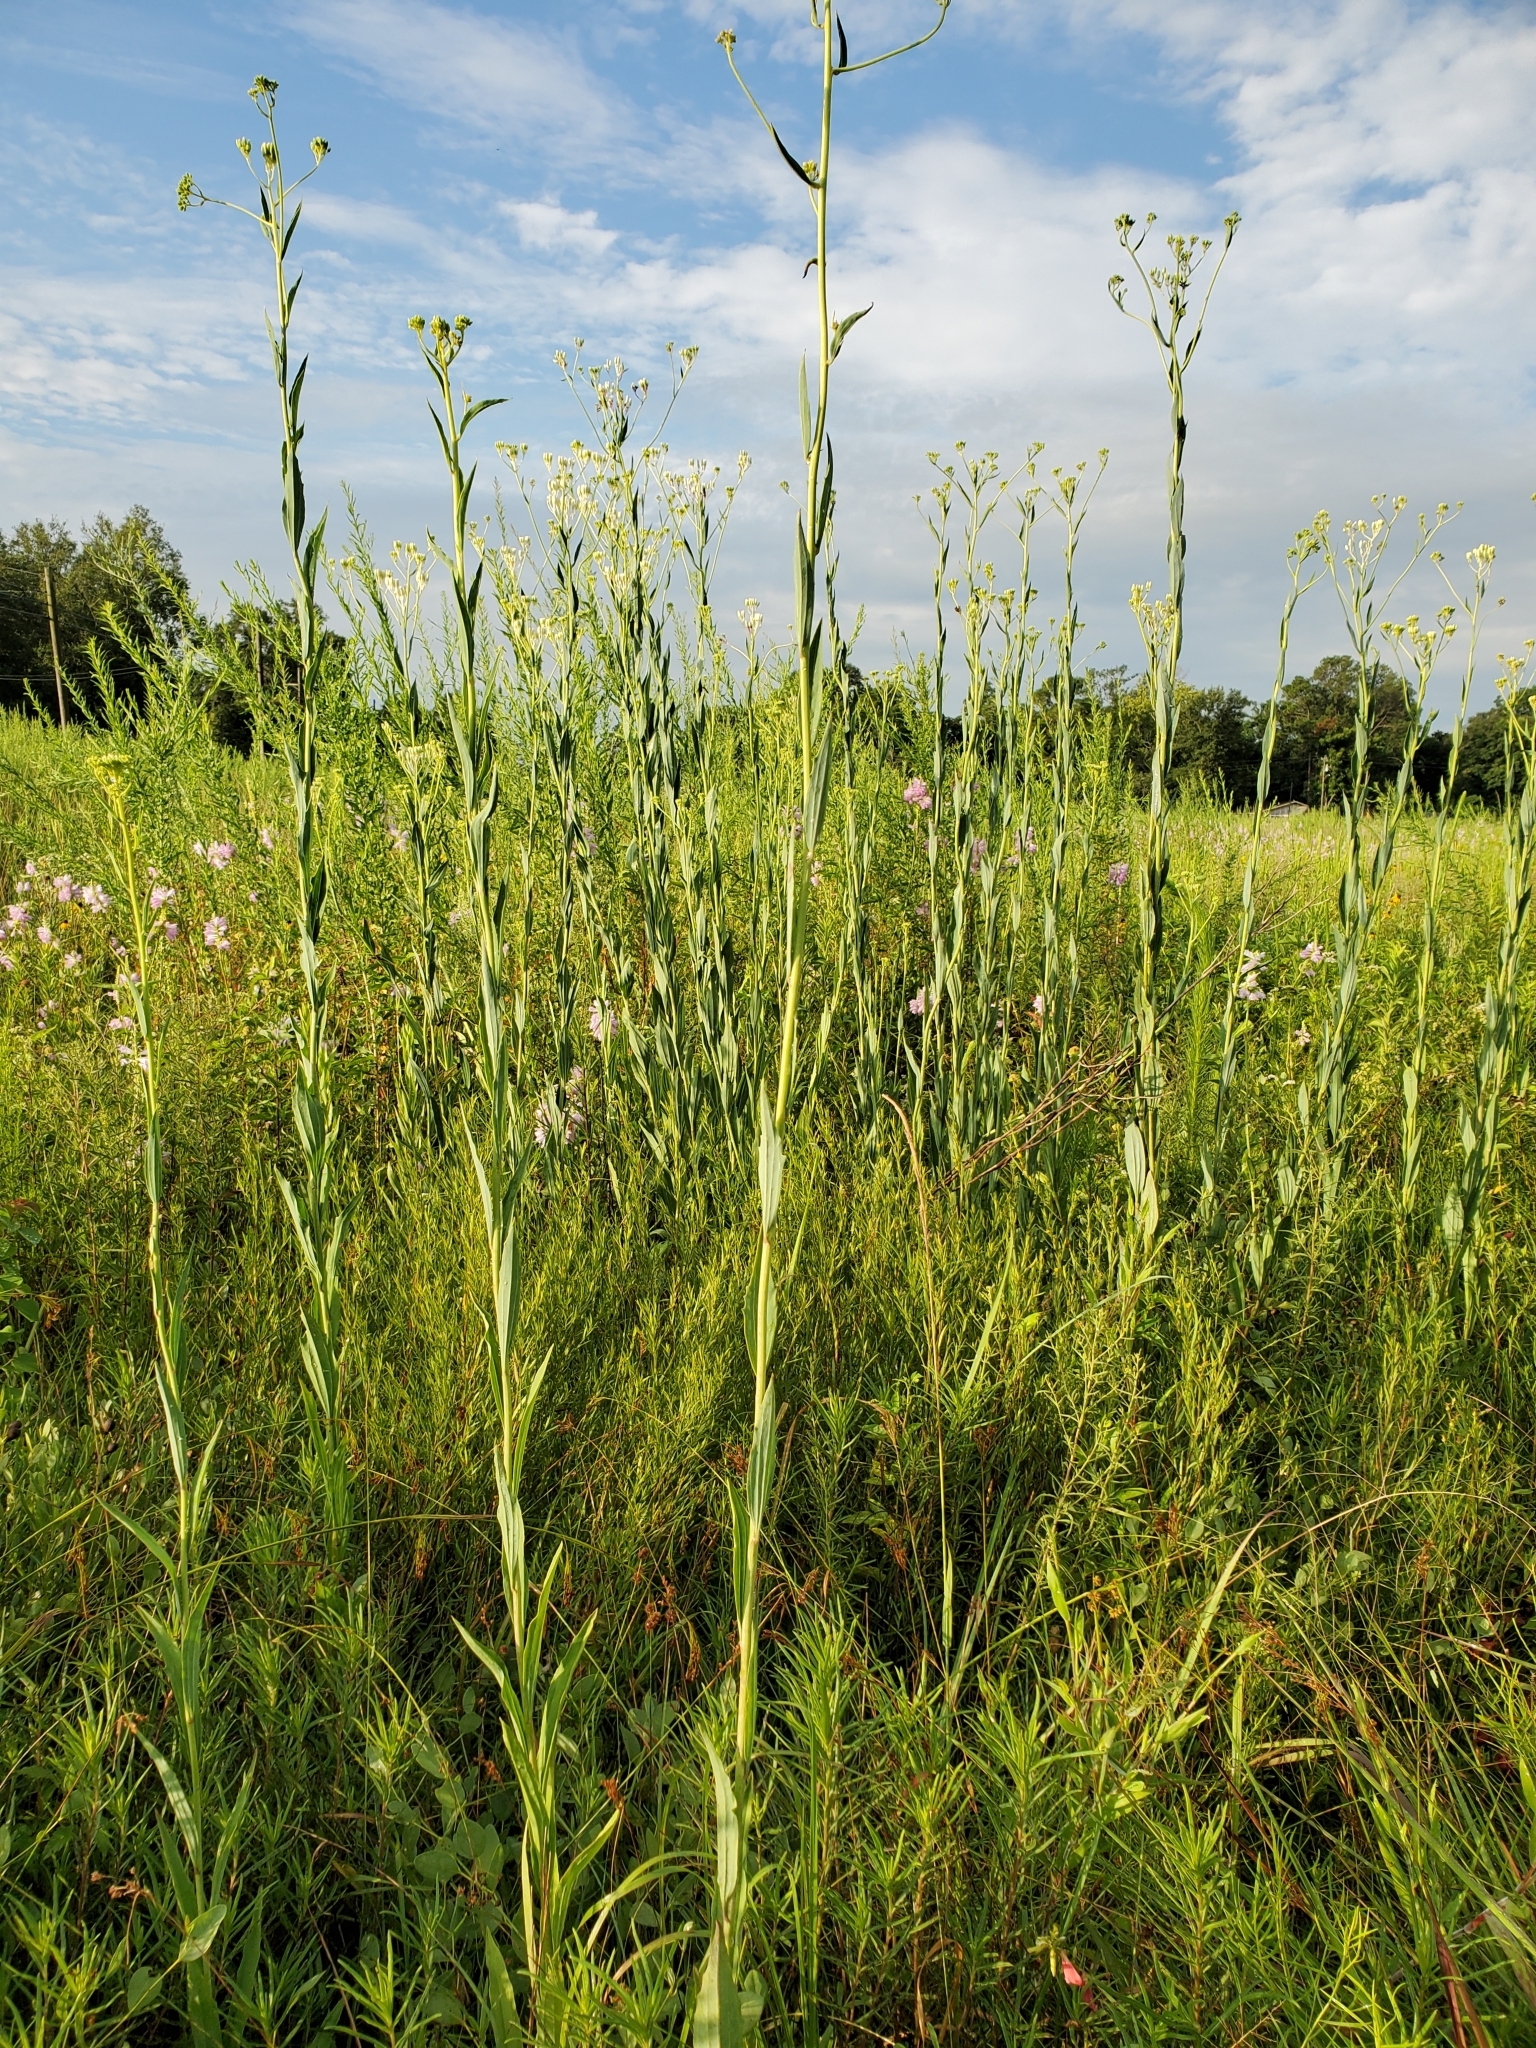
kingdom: Plantae
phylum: Tracheophyta
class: Magnoliopsida
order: Asterales
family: Asteraceae
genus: Arnoglossum
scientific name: Arnoglossum ovatum
